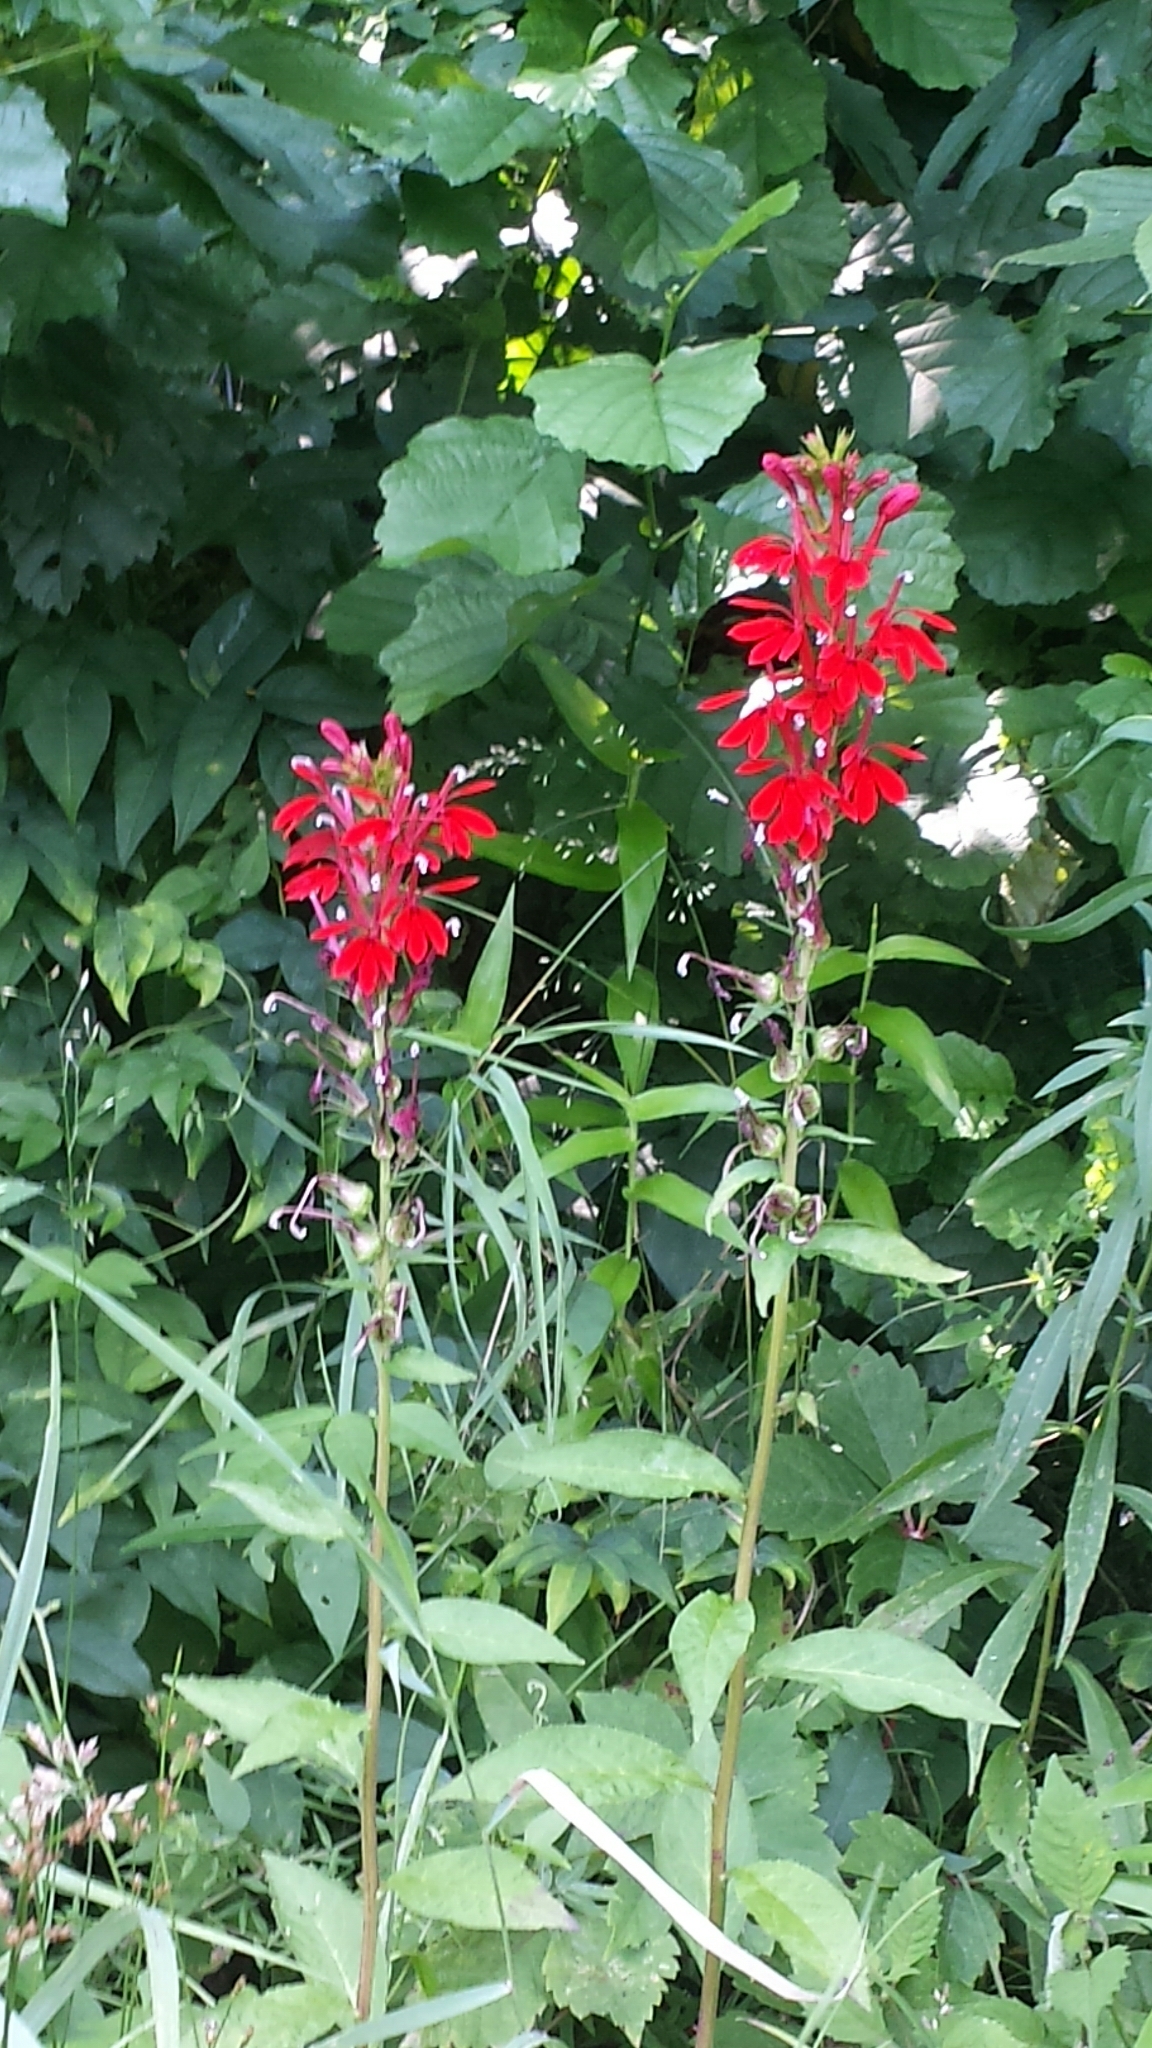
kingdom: Plantae
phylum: Tracheophyta
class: Magnoliopsida
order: Asterales
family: Campanulaceae
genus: Lobelia
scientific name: Lobelia cardinalis
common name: Cardinal flower
